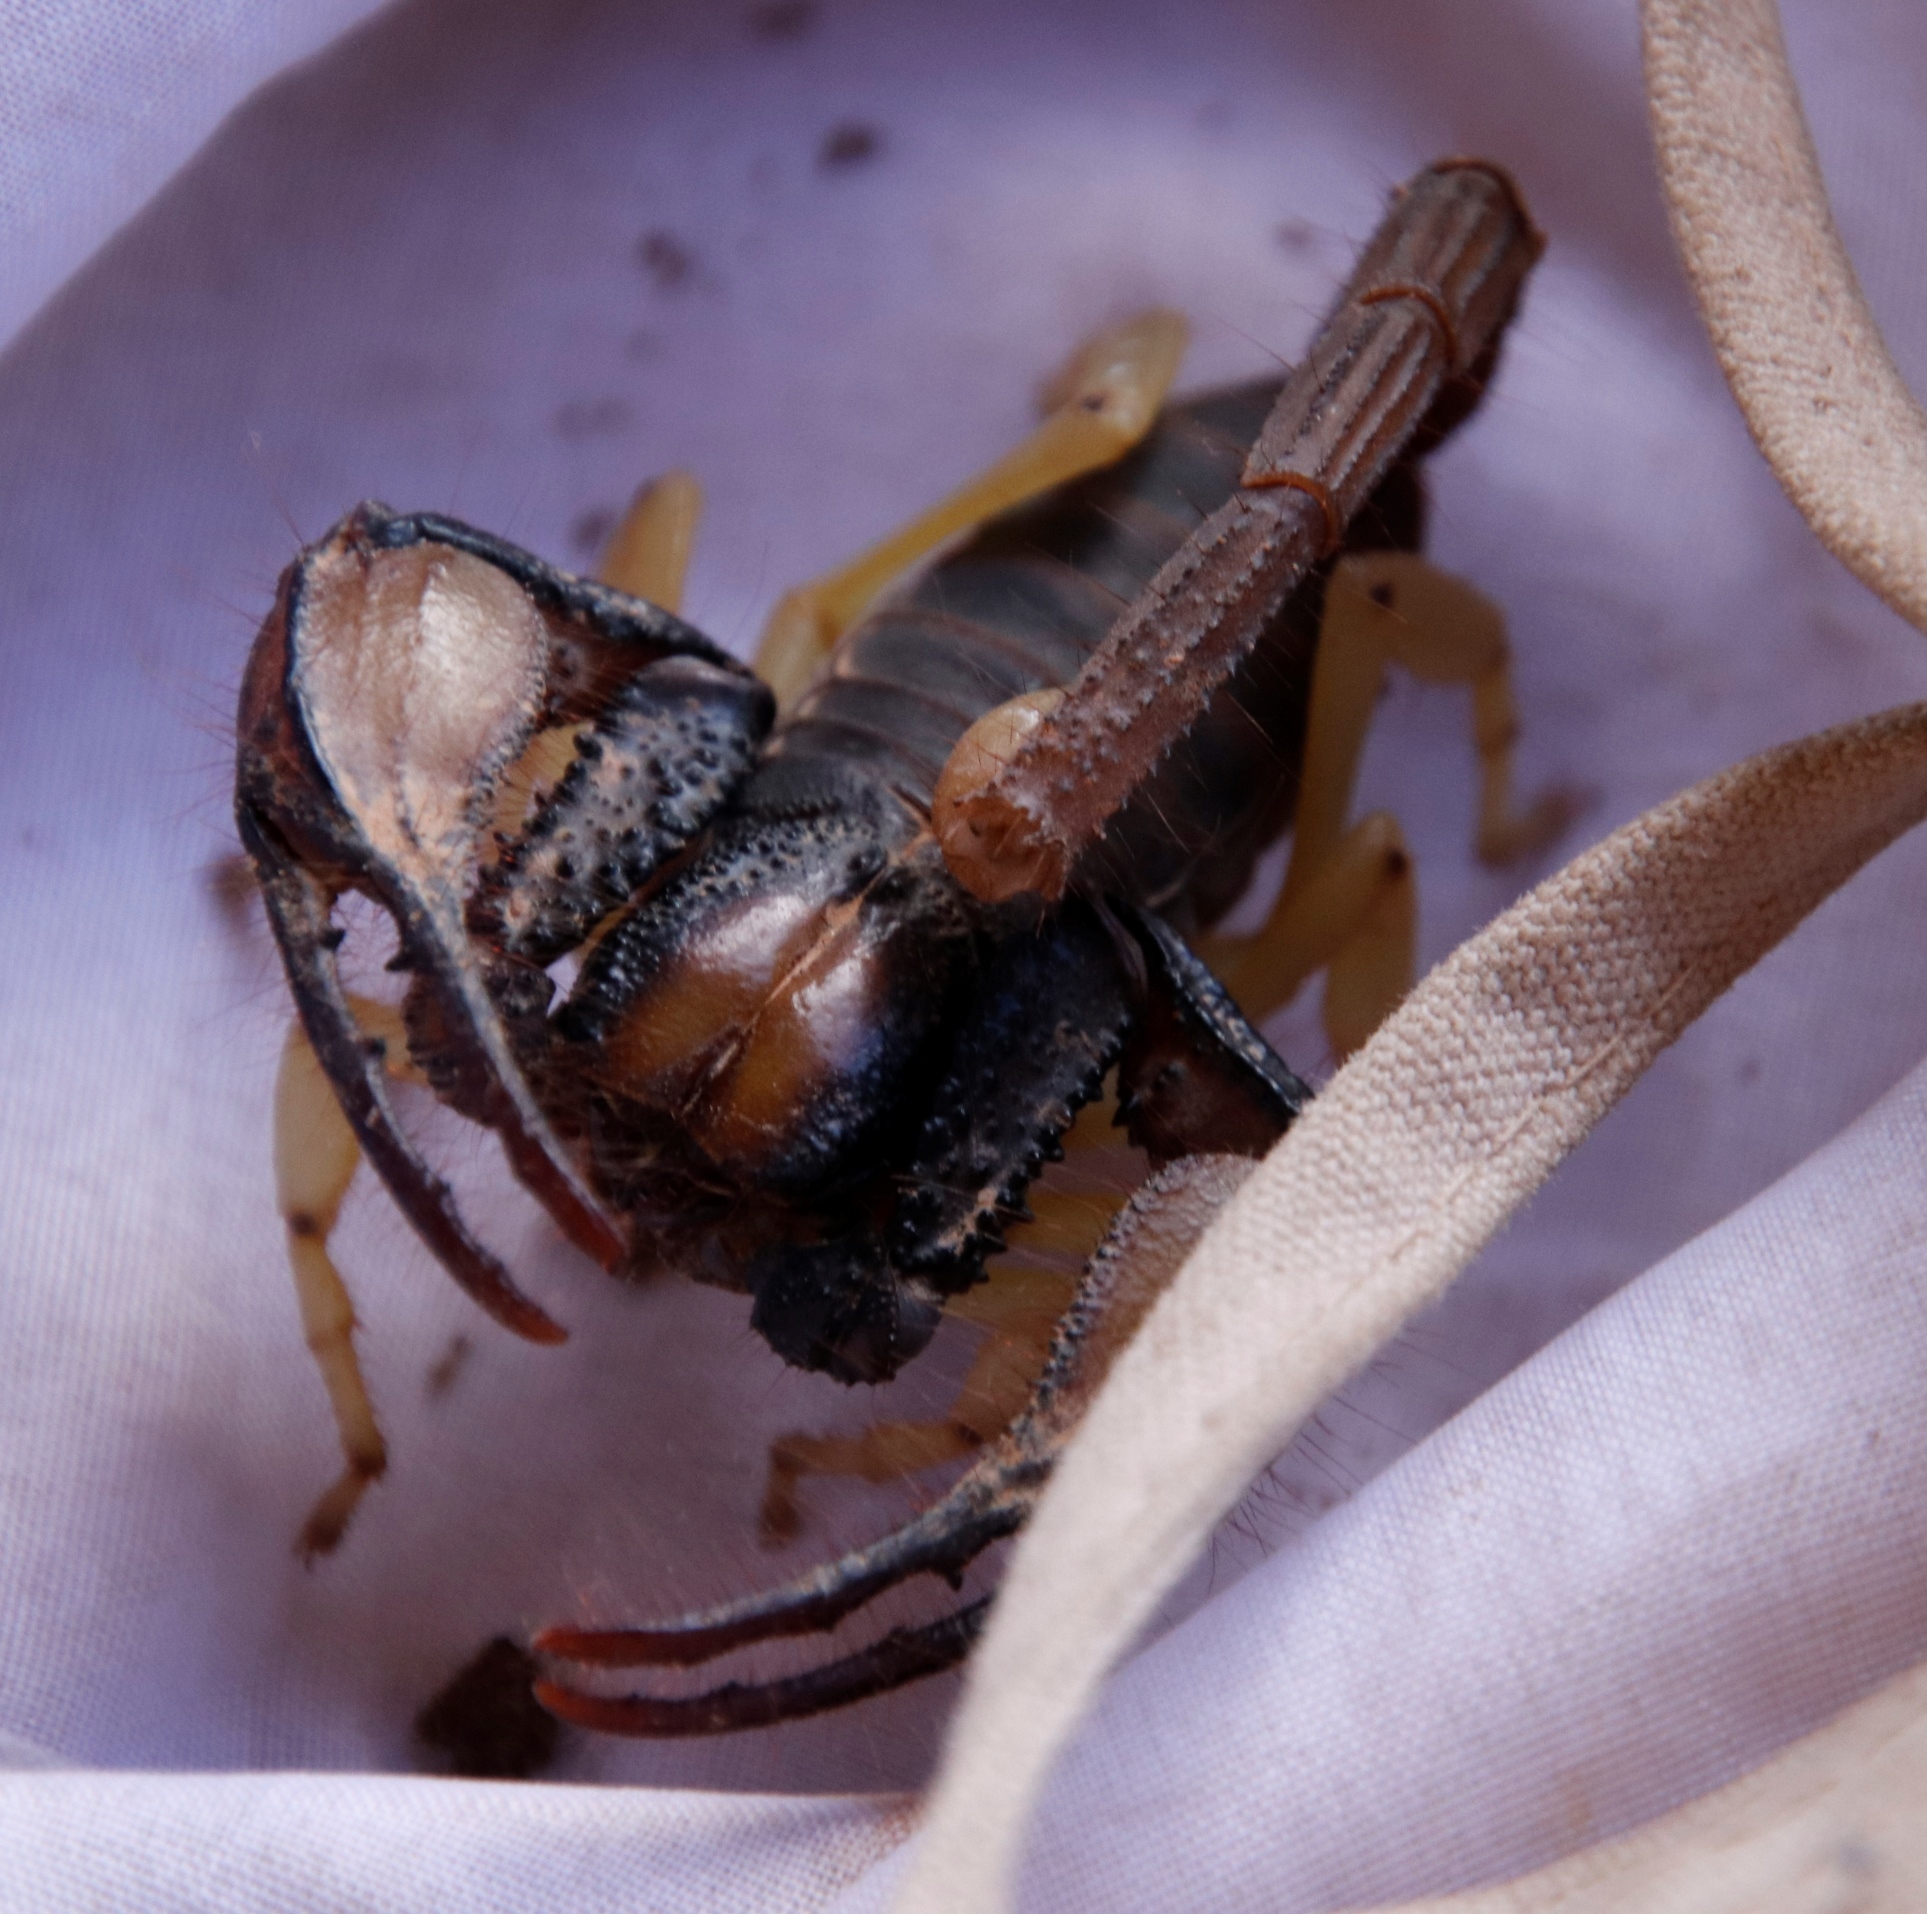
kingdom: Animalia
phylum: Arthropoda
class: Arachnida
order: Scorpiones
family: Scorpionidae
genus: Opistophthalmus
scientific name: Opistophthalmus pallipes
